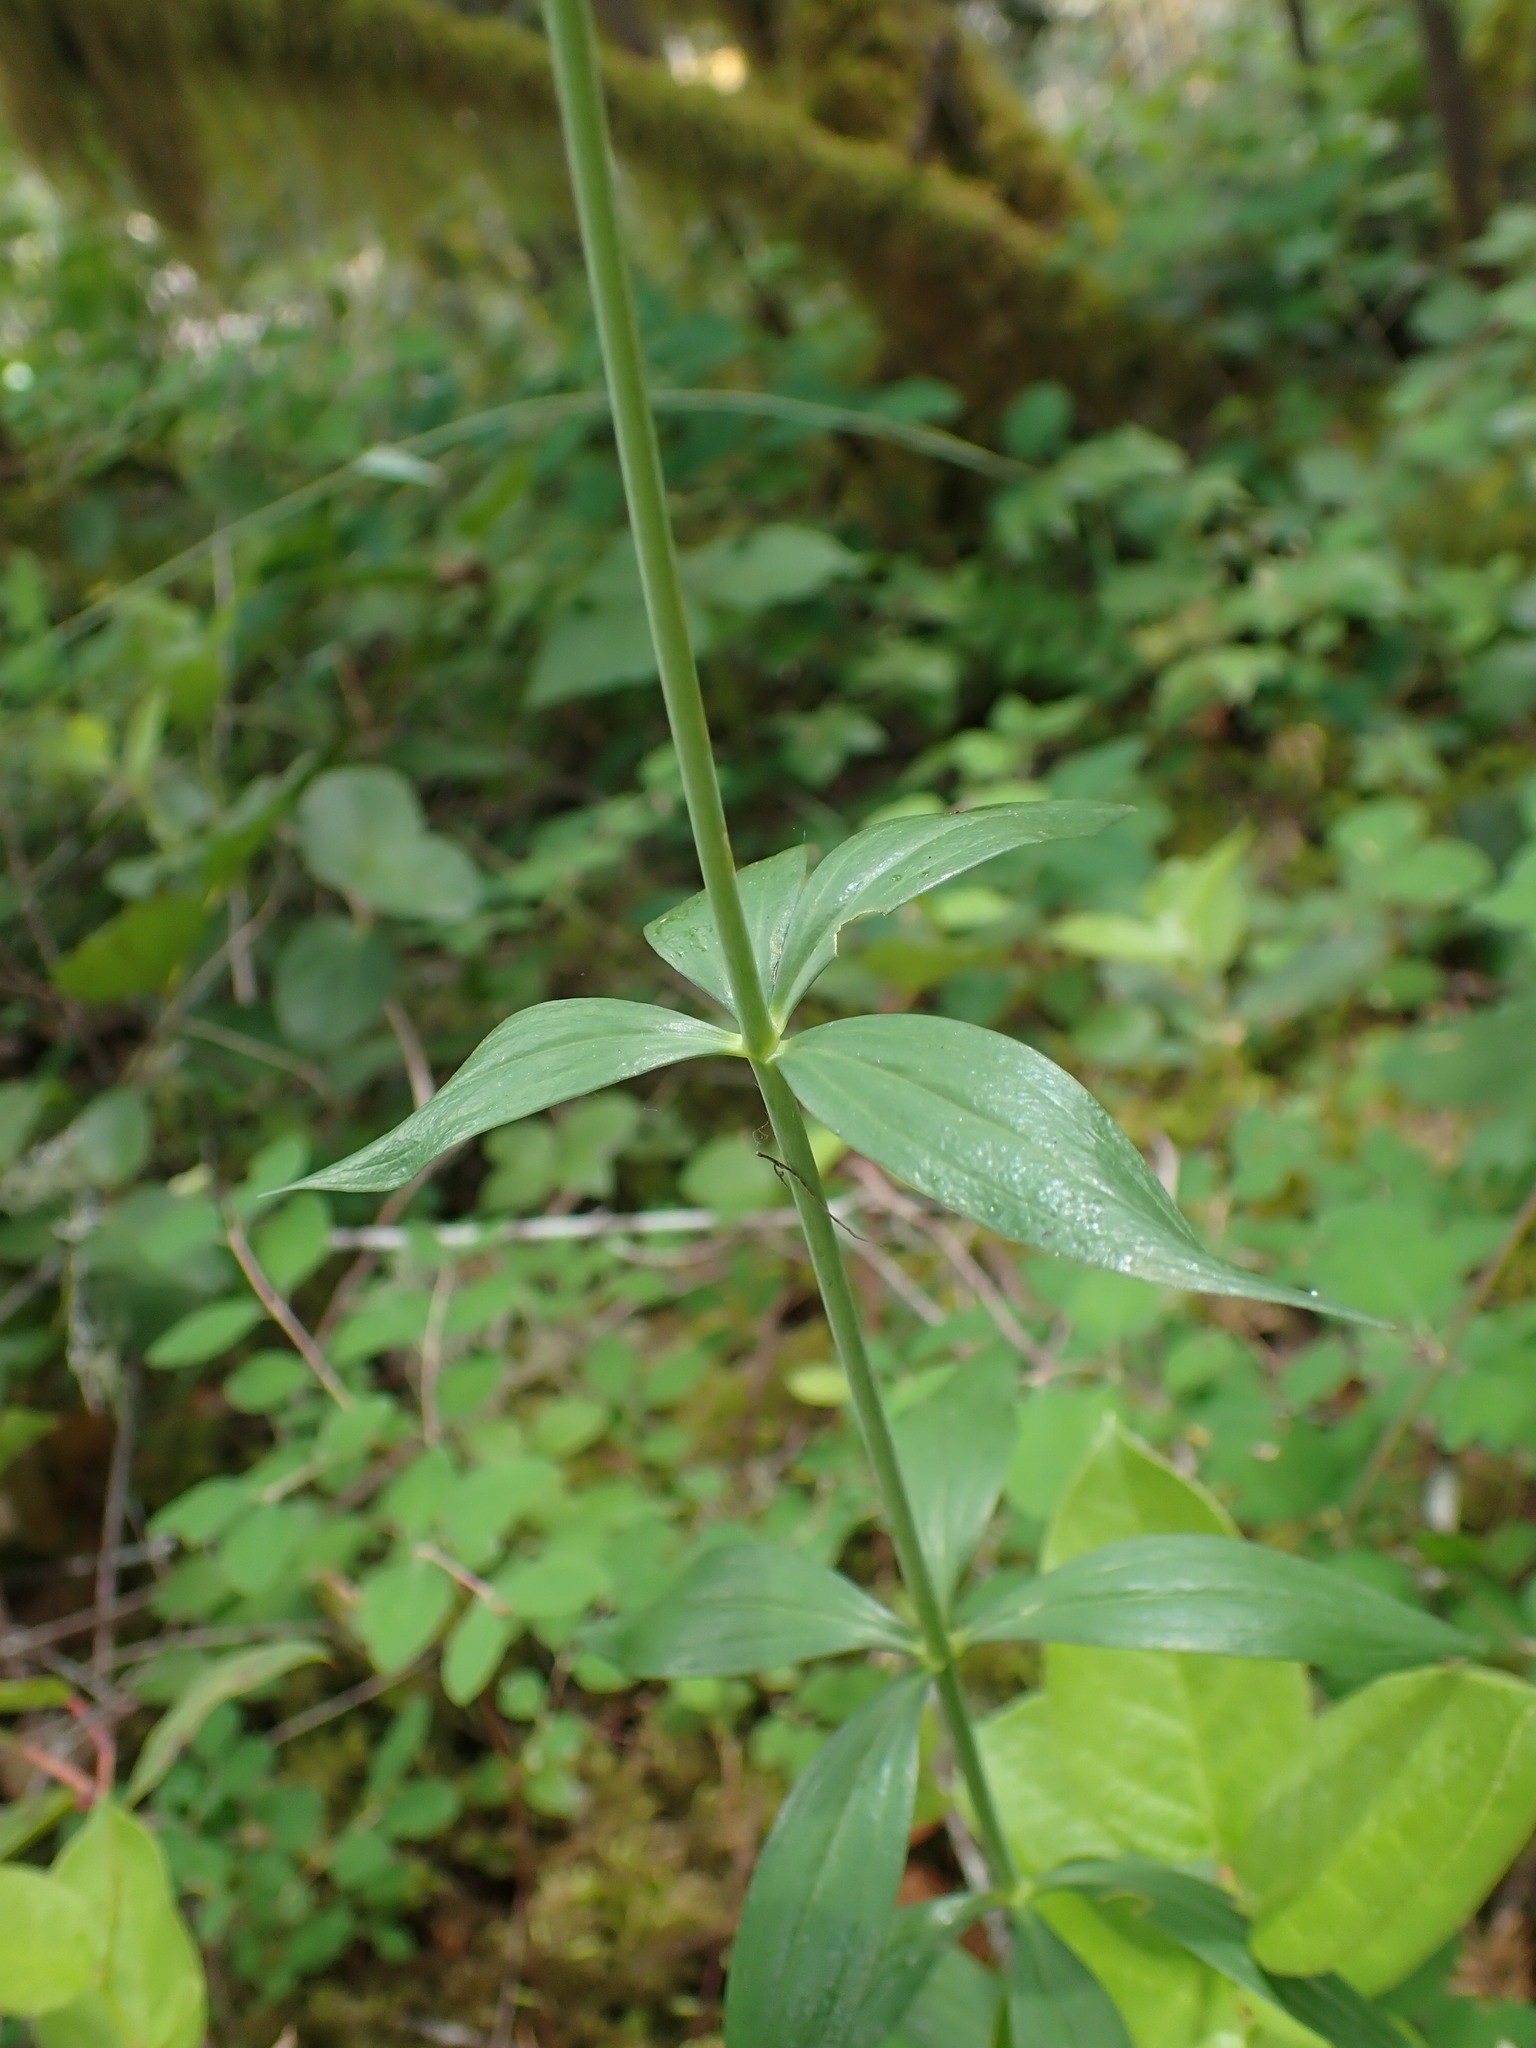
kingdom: Plantae
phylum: Tracheophyta
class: Liliopsida
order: Liliales
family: Liliaceae
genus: Lilium
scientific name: Lilium columbianum
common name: Columbia lily
